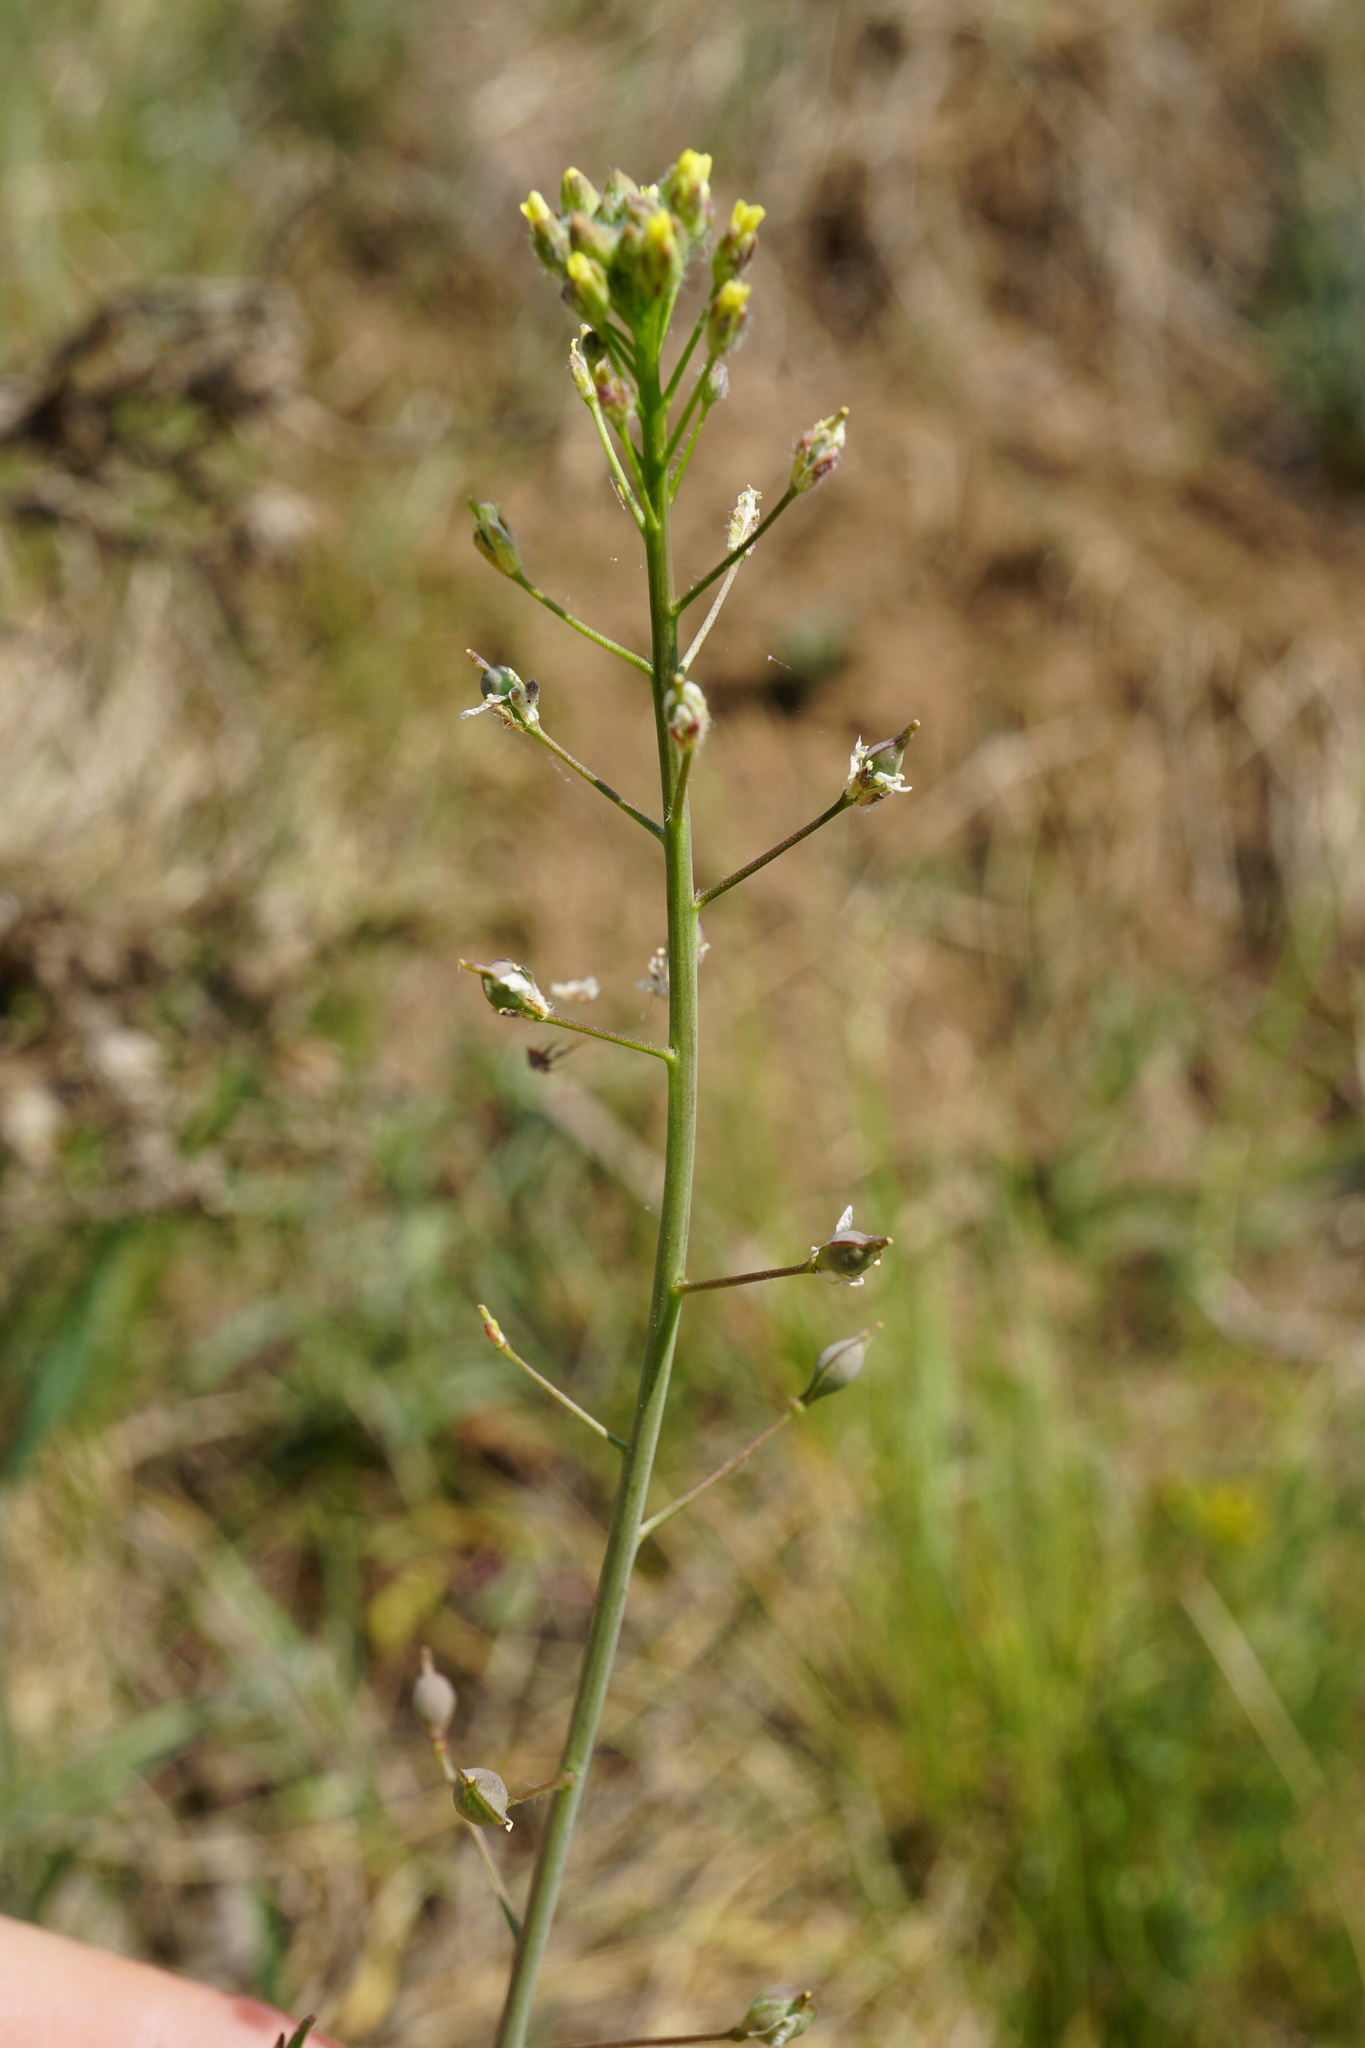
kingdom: Plantae
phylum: Tracheophyta
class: Magnoliopsida
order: Brassicales
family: Brassicaceae
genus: Camelina
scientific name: Camelina microcarpa
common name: Lesser gold-of-pleasure
